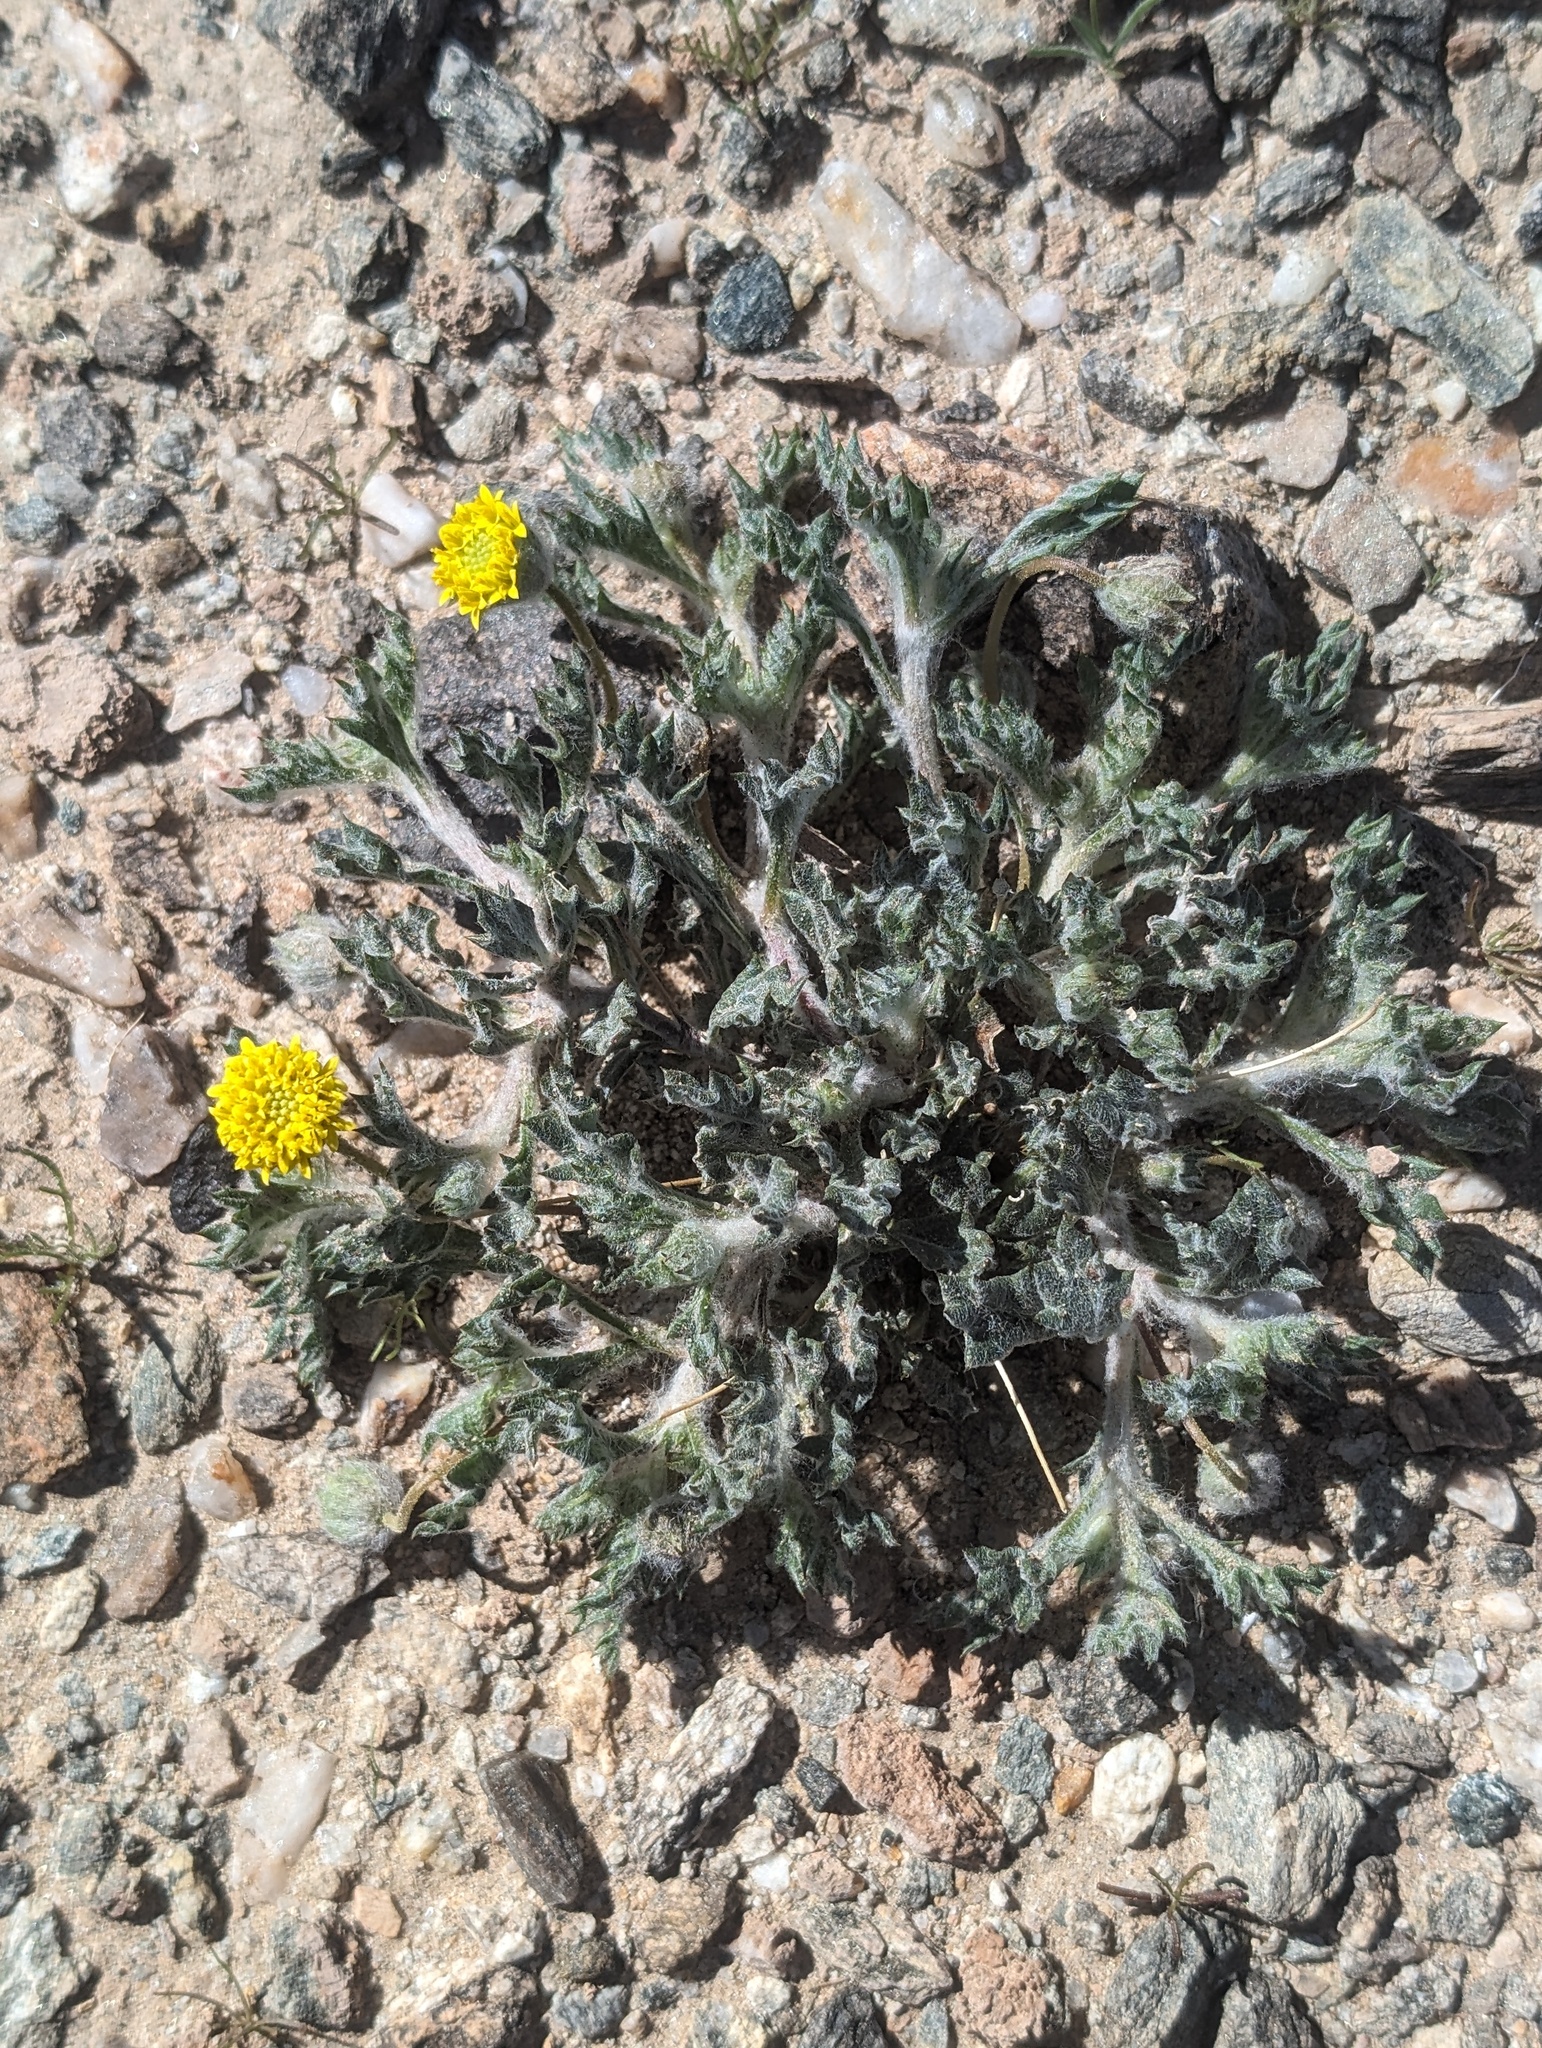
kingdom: Plantae
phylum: Tracheophyta
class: Magnoliopsida
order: Asterales
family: Asteraceae
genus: Trichoptilium
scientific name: Trichoptilium incisum
